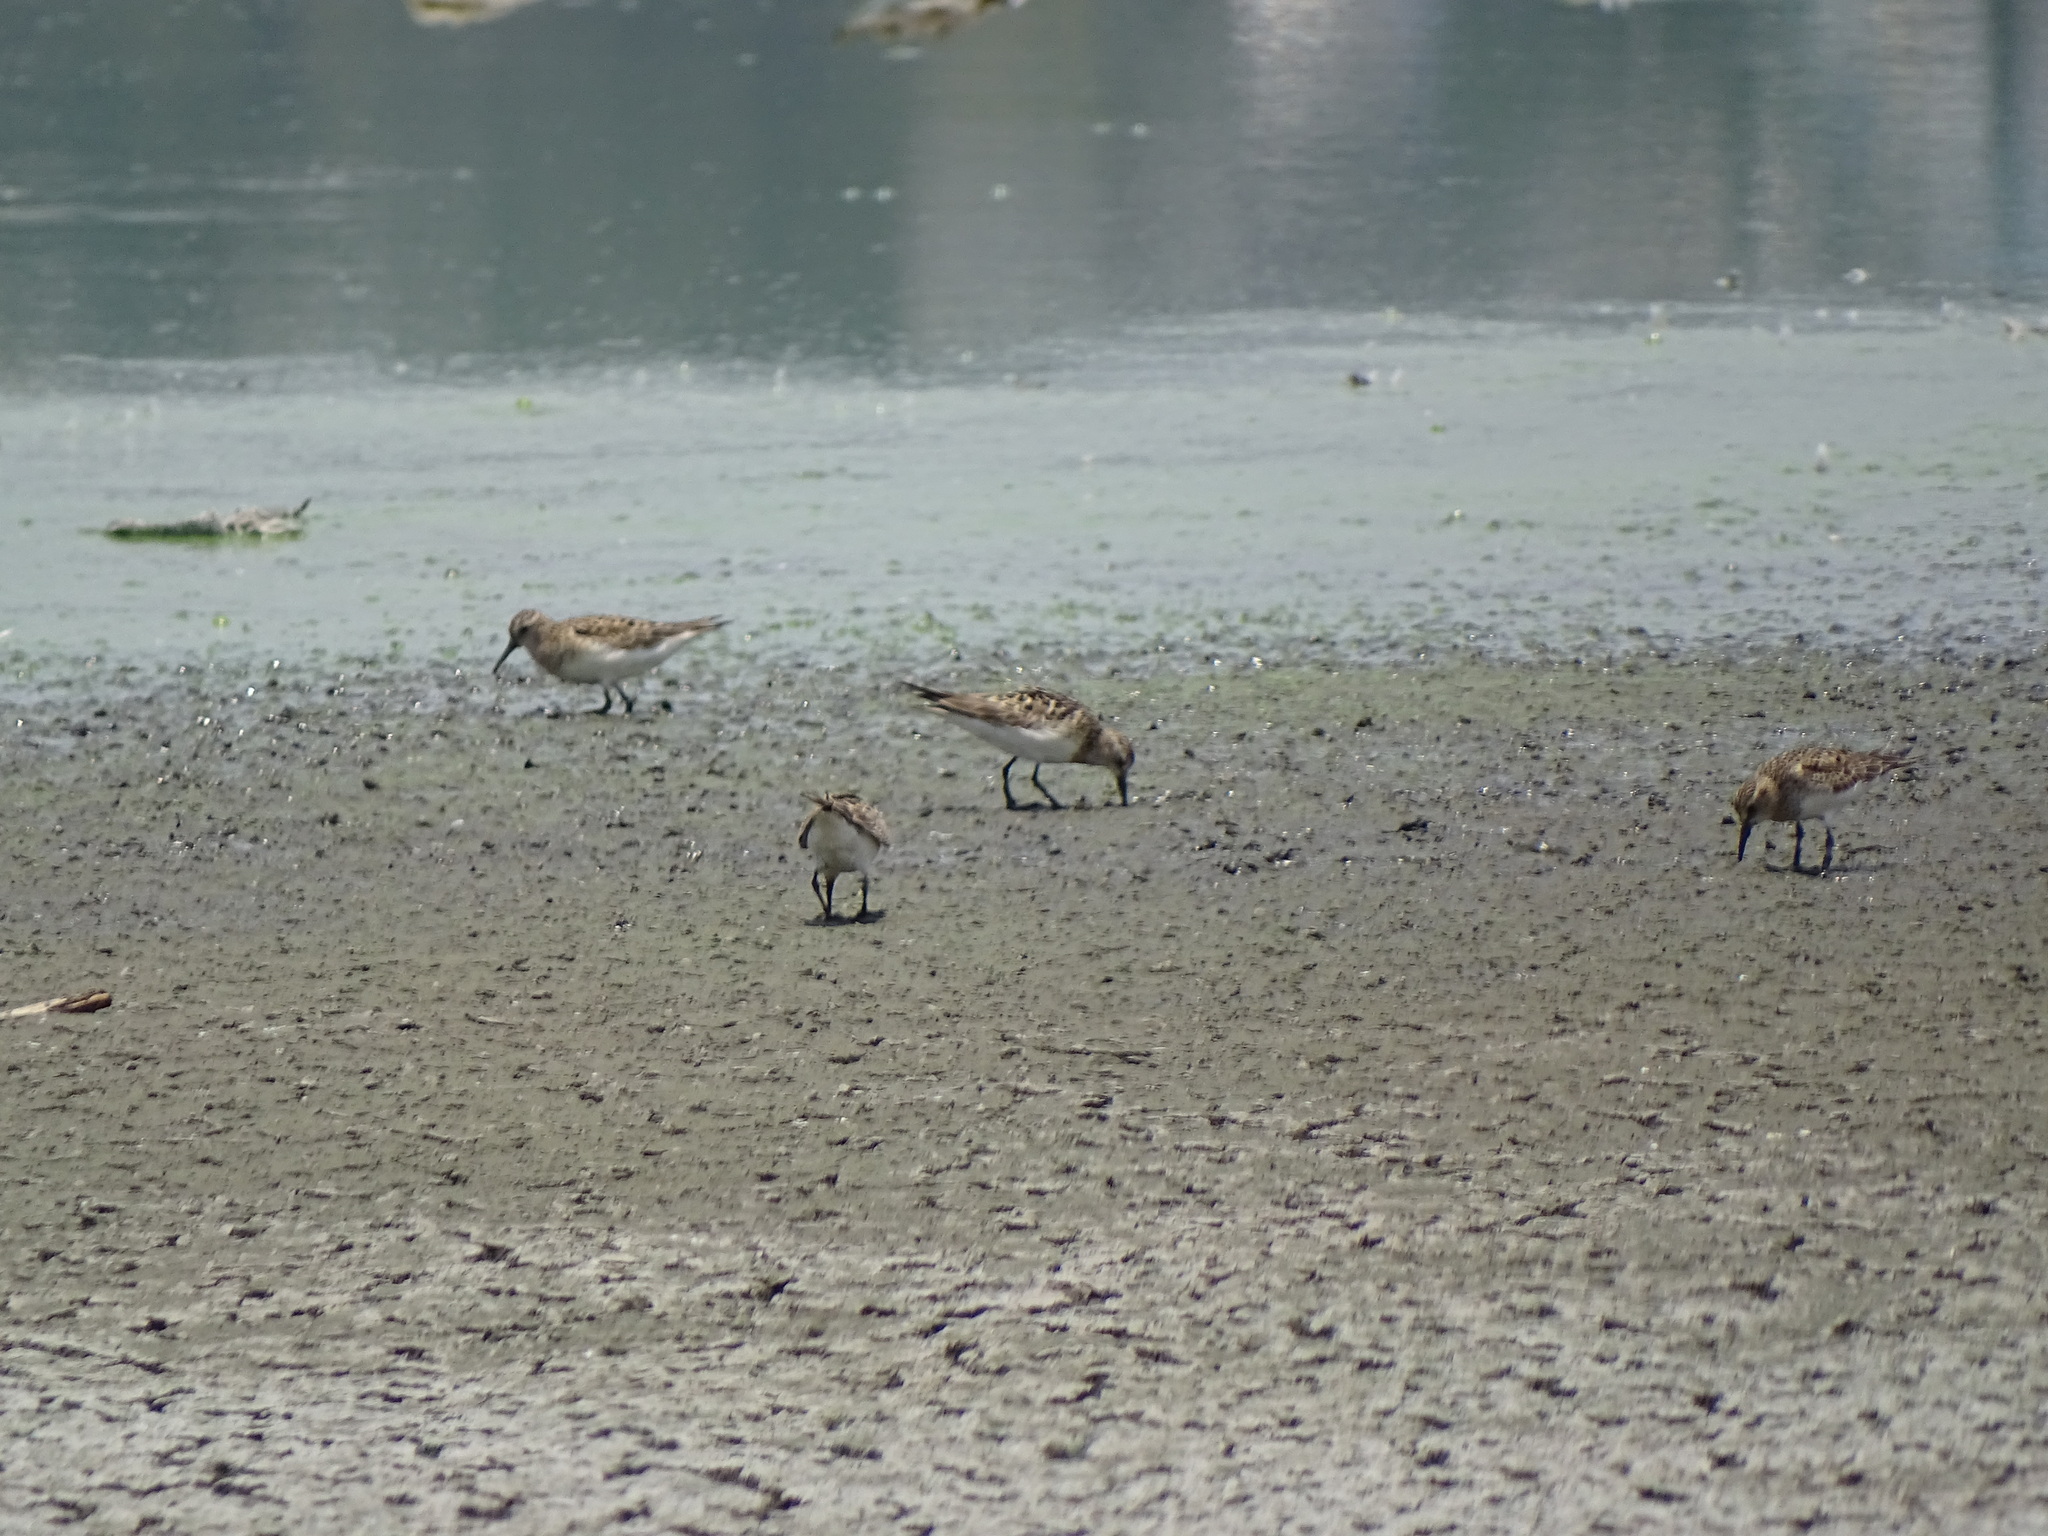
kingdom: Animalia
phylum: Chordata
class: Aves
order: Charadriiformes
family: Scolopacidae
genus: Calidris
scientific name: Calidris bairdii
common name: Baird's sandpiper
